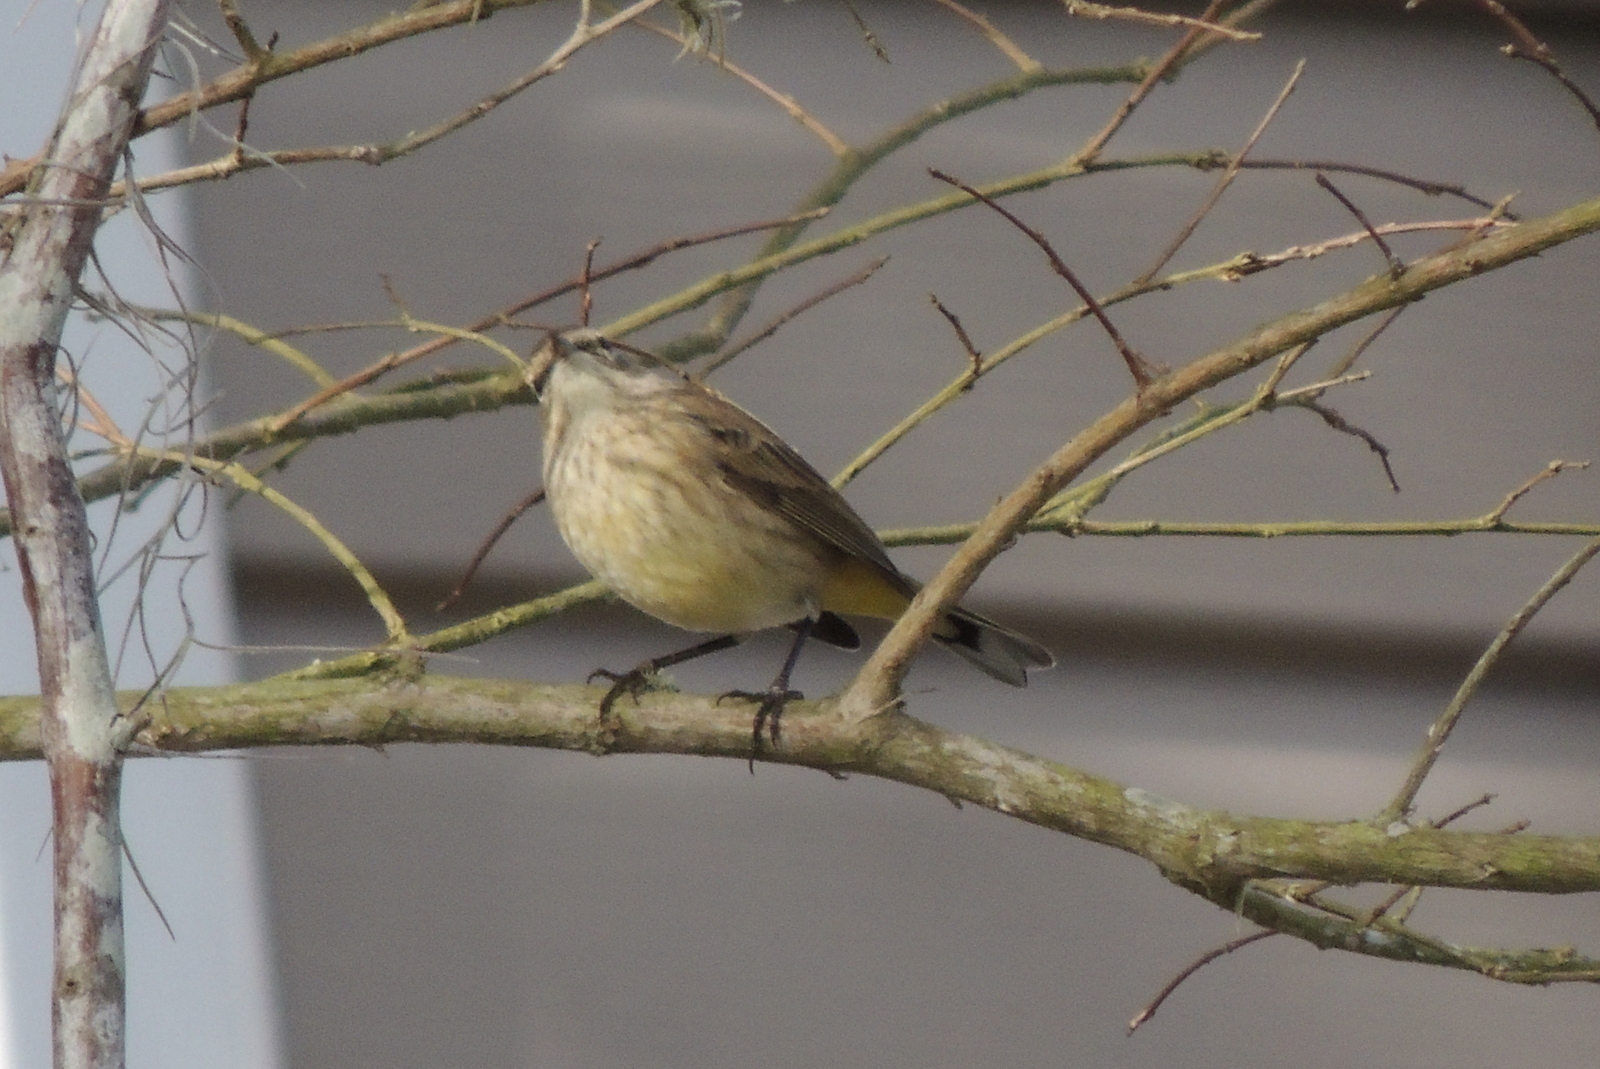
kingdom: Animalia
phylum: Chordata
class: Aves
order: Passeriformes
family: Parulidae
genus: Setophaga
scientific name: Setophaga palmarum
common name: Palm warbler
